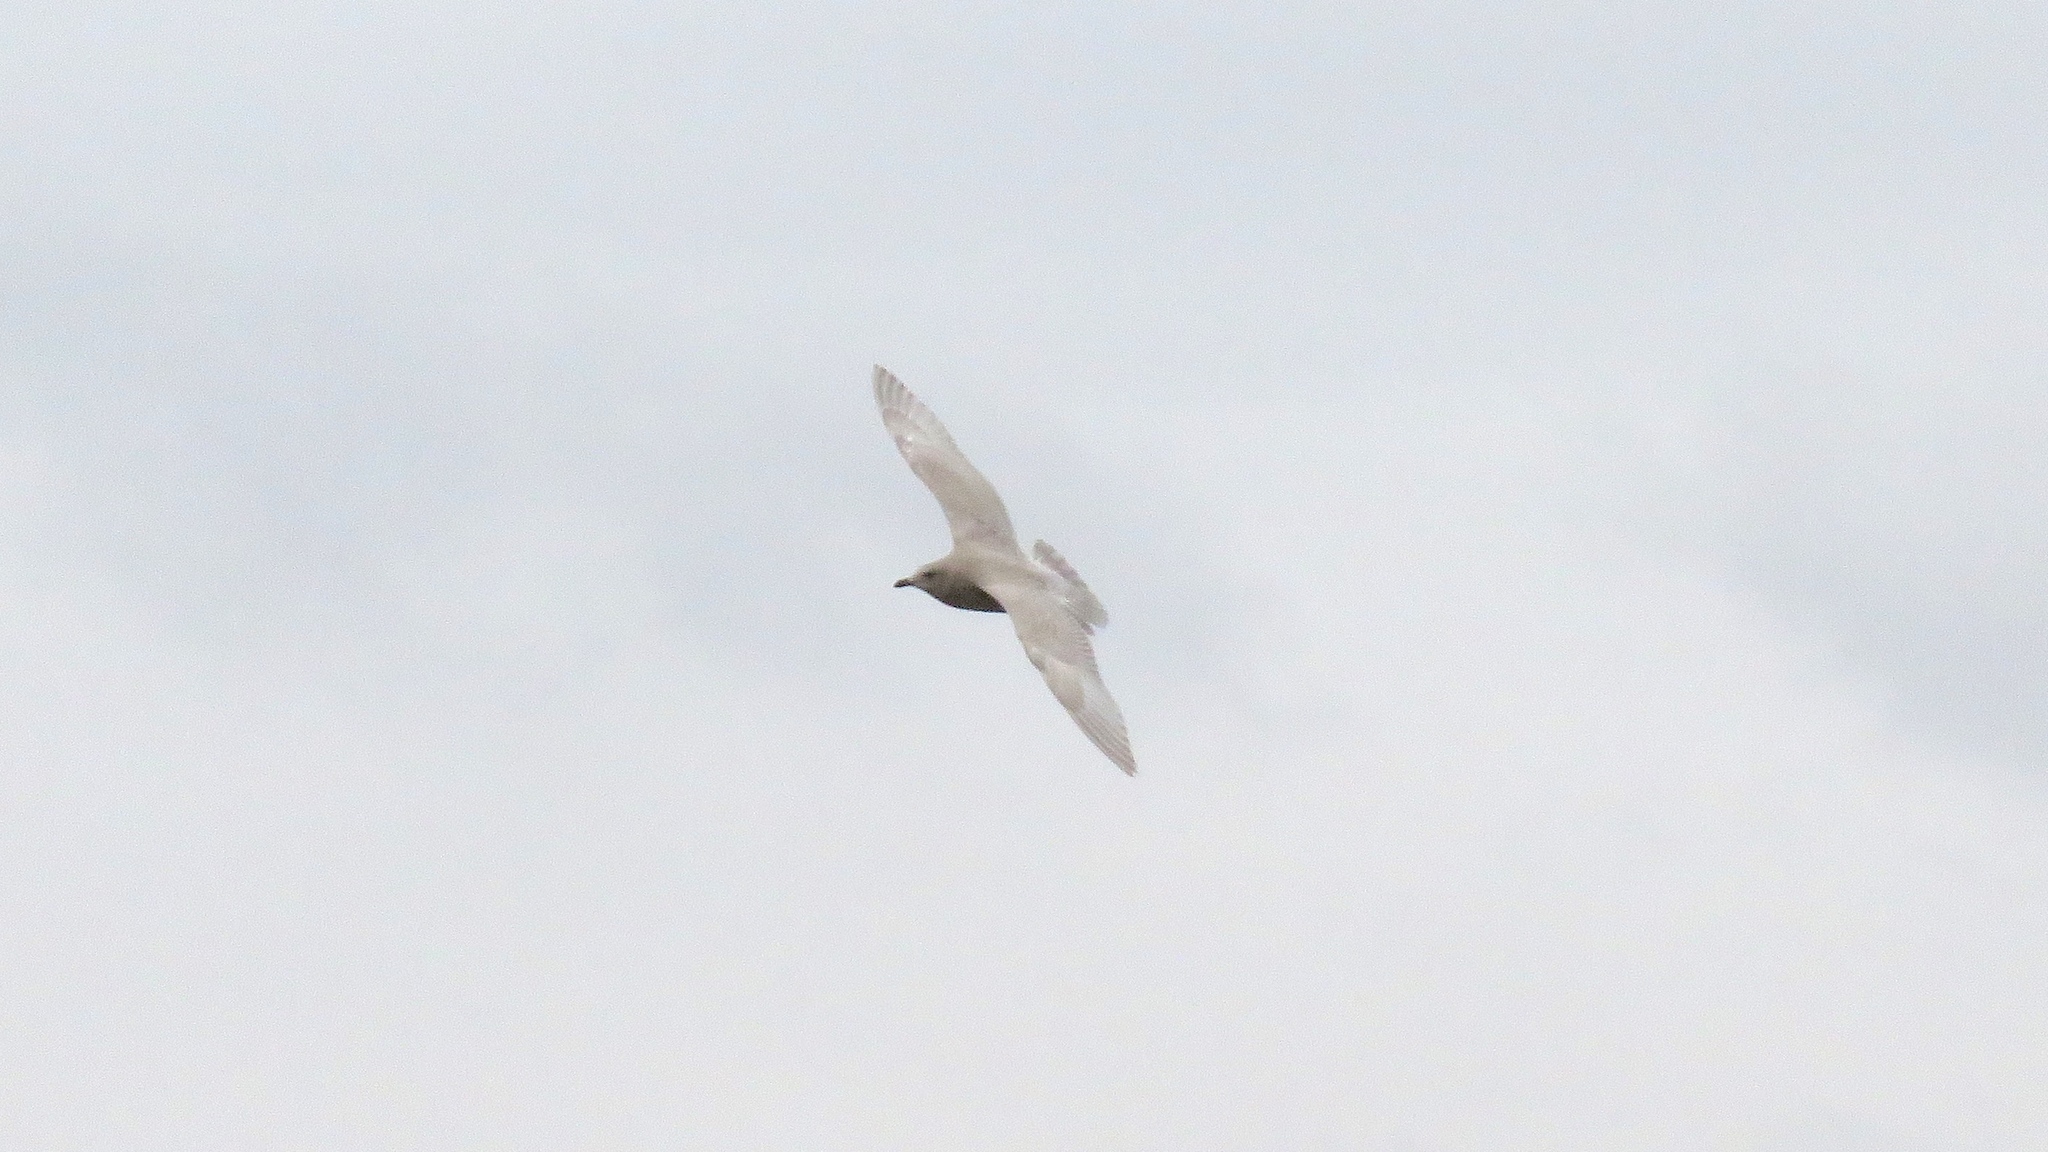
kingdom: Animalia
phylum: Chordata
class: Aves
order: Charadriiformes
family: Laridae
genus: Larus
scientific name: Larus glaucoides
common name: Iceland gull
